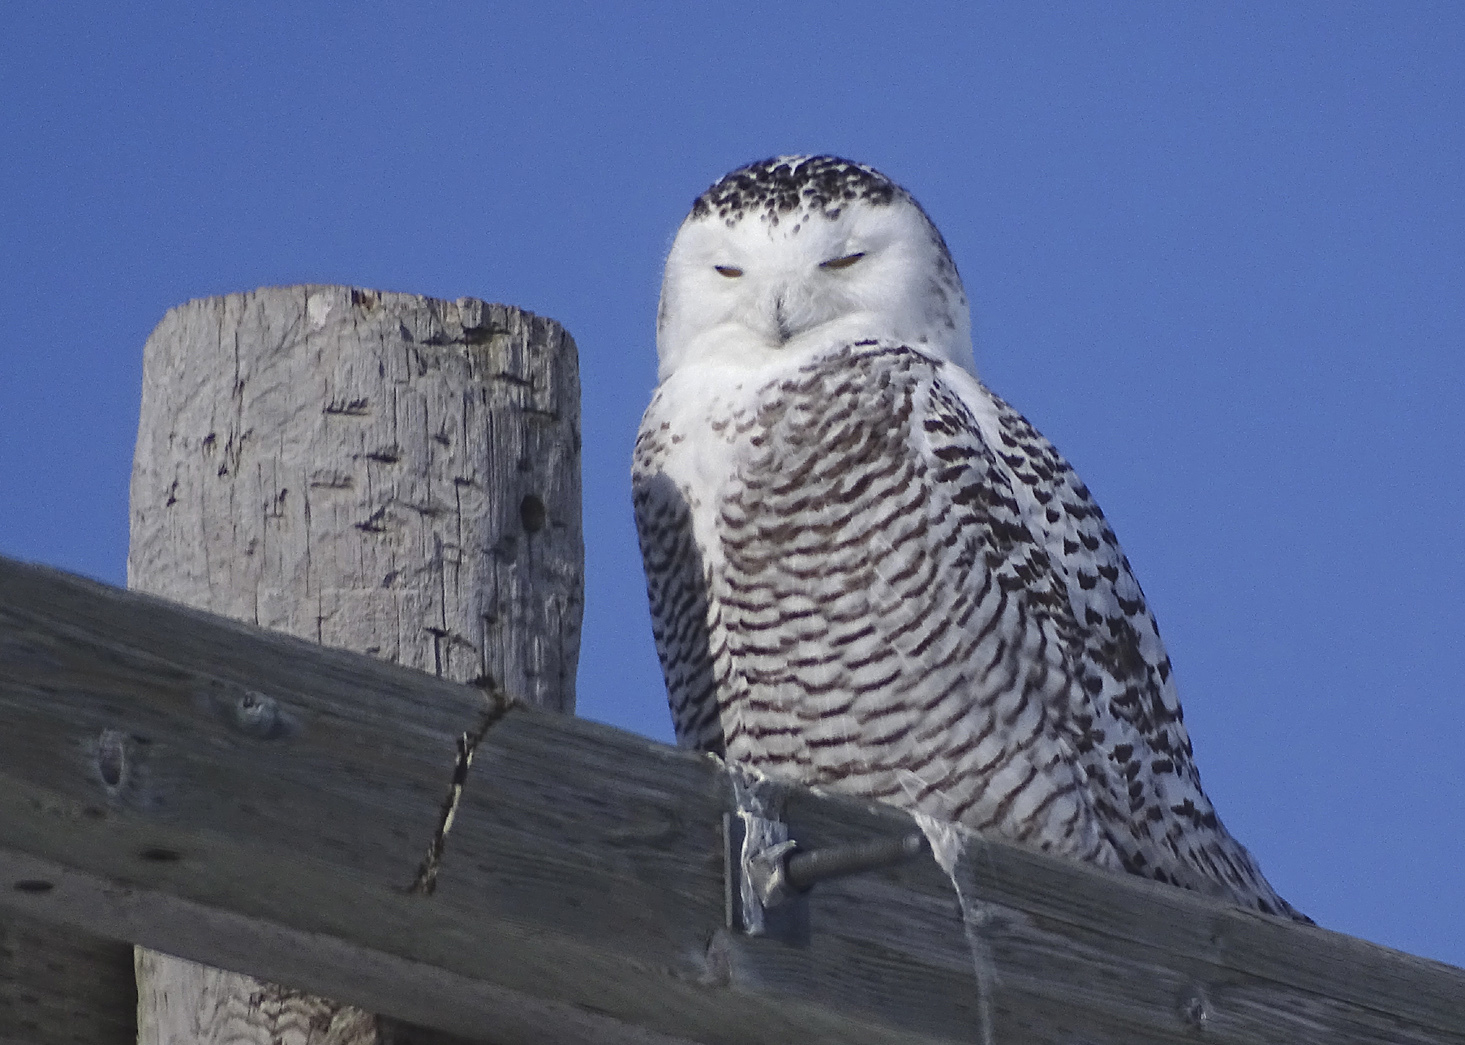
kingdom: Animalia
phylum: Chordata
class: Aves
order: Strigiformes
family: Strigidae
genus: Bubo
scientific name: Bubo scandiacus
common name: Snowy owl
